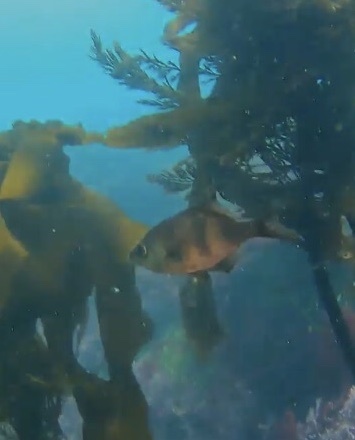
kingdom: Animalia
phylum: Chordata
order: Perciformes
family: Embiotocidae
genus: Rhacochilus
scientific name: Rhacochilus vacca
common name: Pile perch
